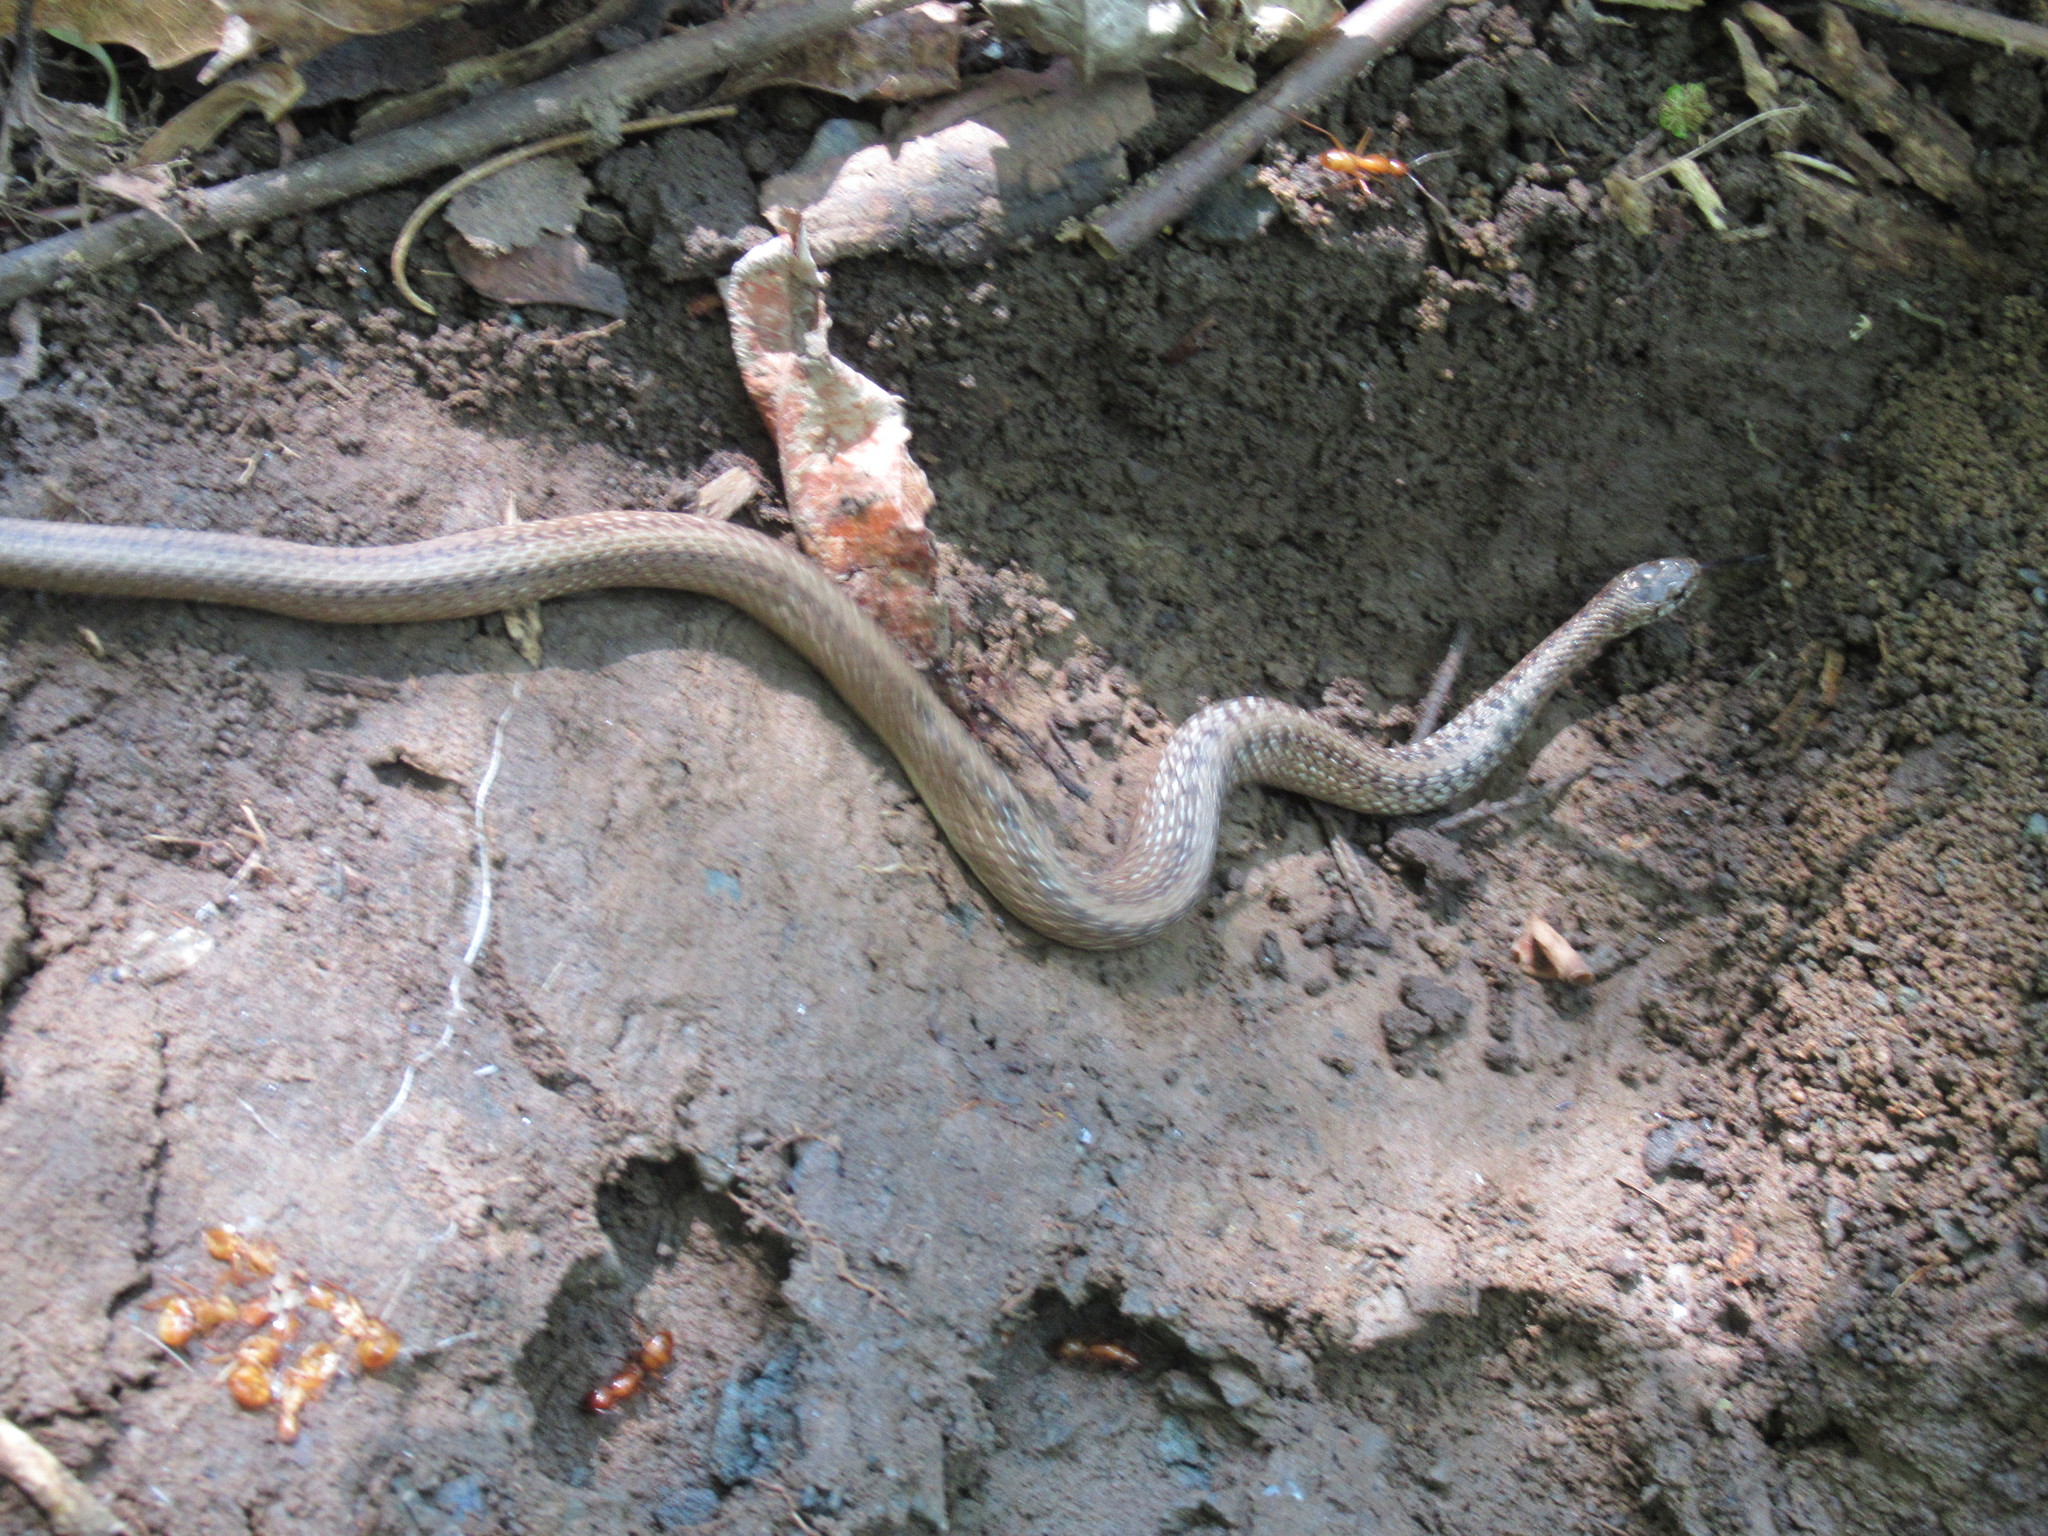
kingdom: Animalia
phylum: Chordata
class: Squamata
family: Colubridae
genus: Storeria
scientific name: Storeria dekayi
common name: (dekay’s) brown snake
